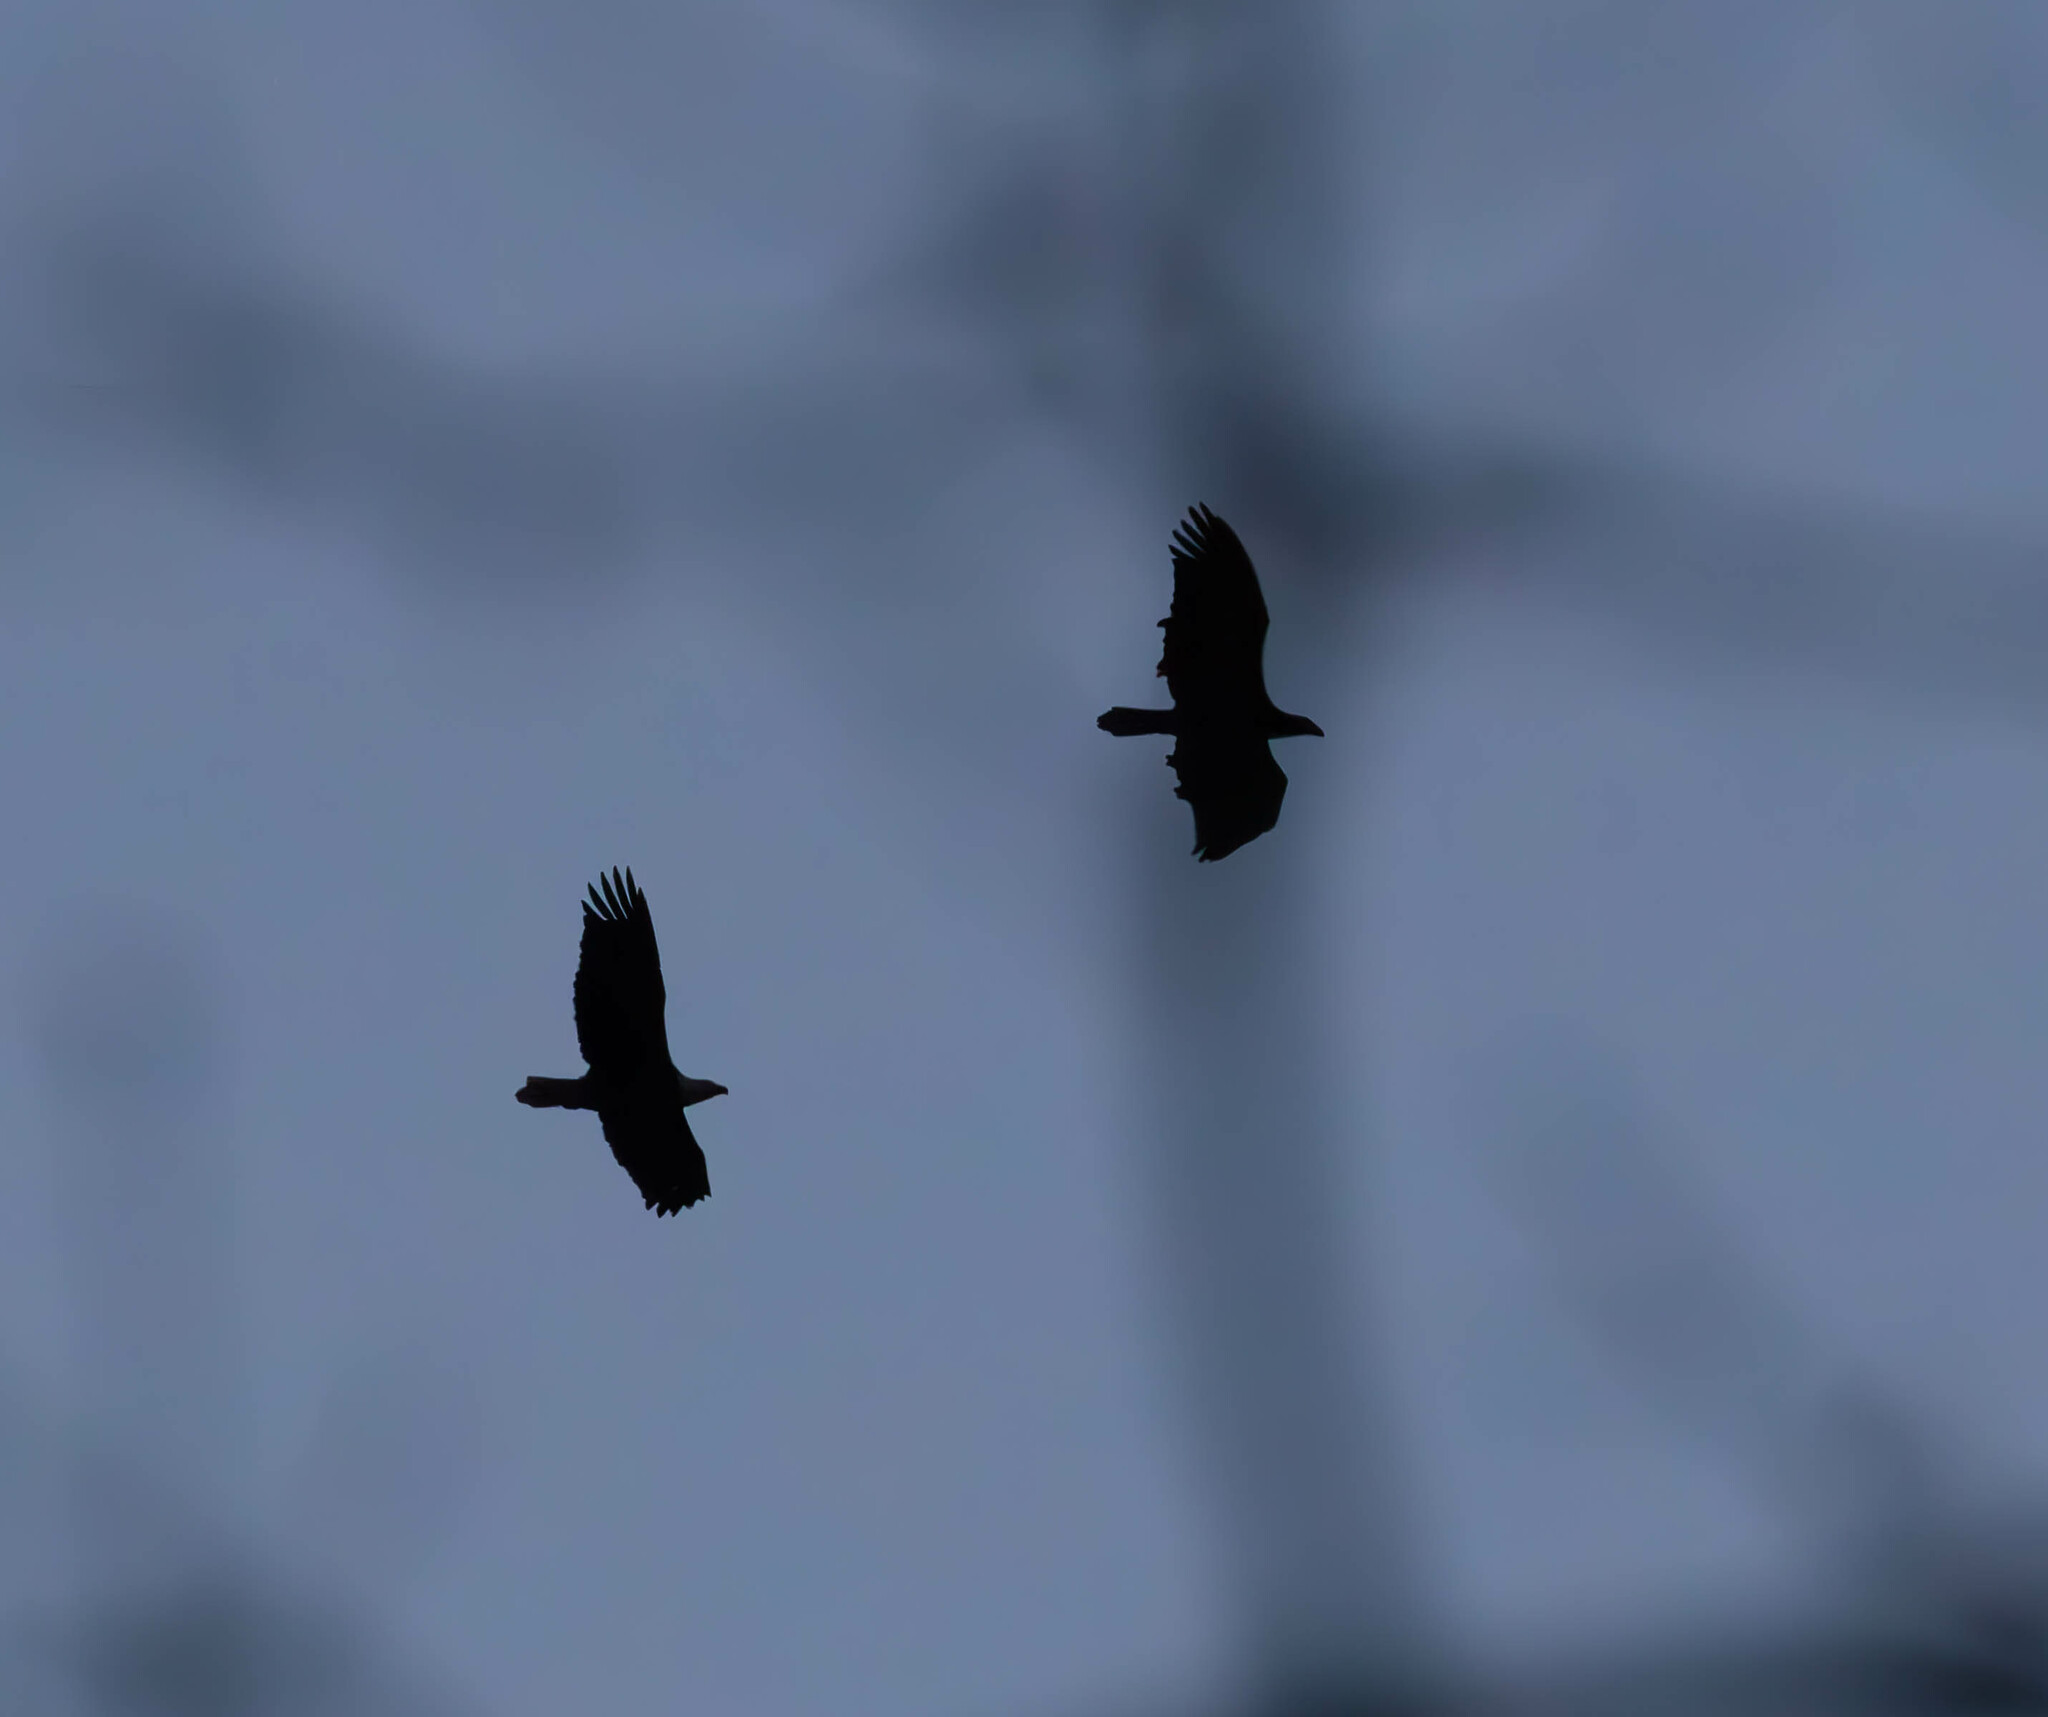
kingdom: Animalia
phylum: Chordata
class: Aves
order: Accipitriformes
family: Accipitridae
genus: Haliaeetus
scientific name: Haliaeetus leucocephalus
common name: Bald eagle
